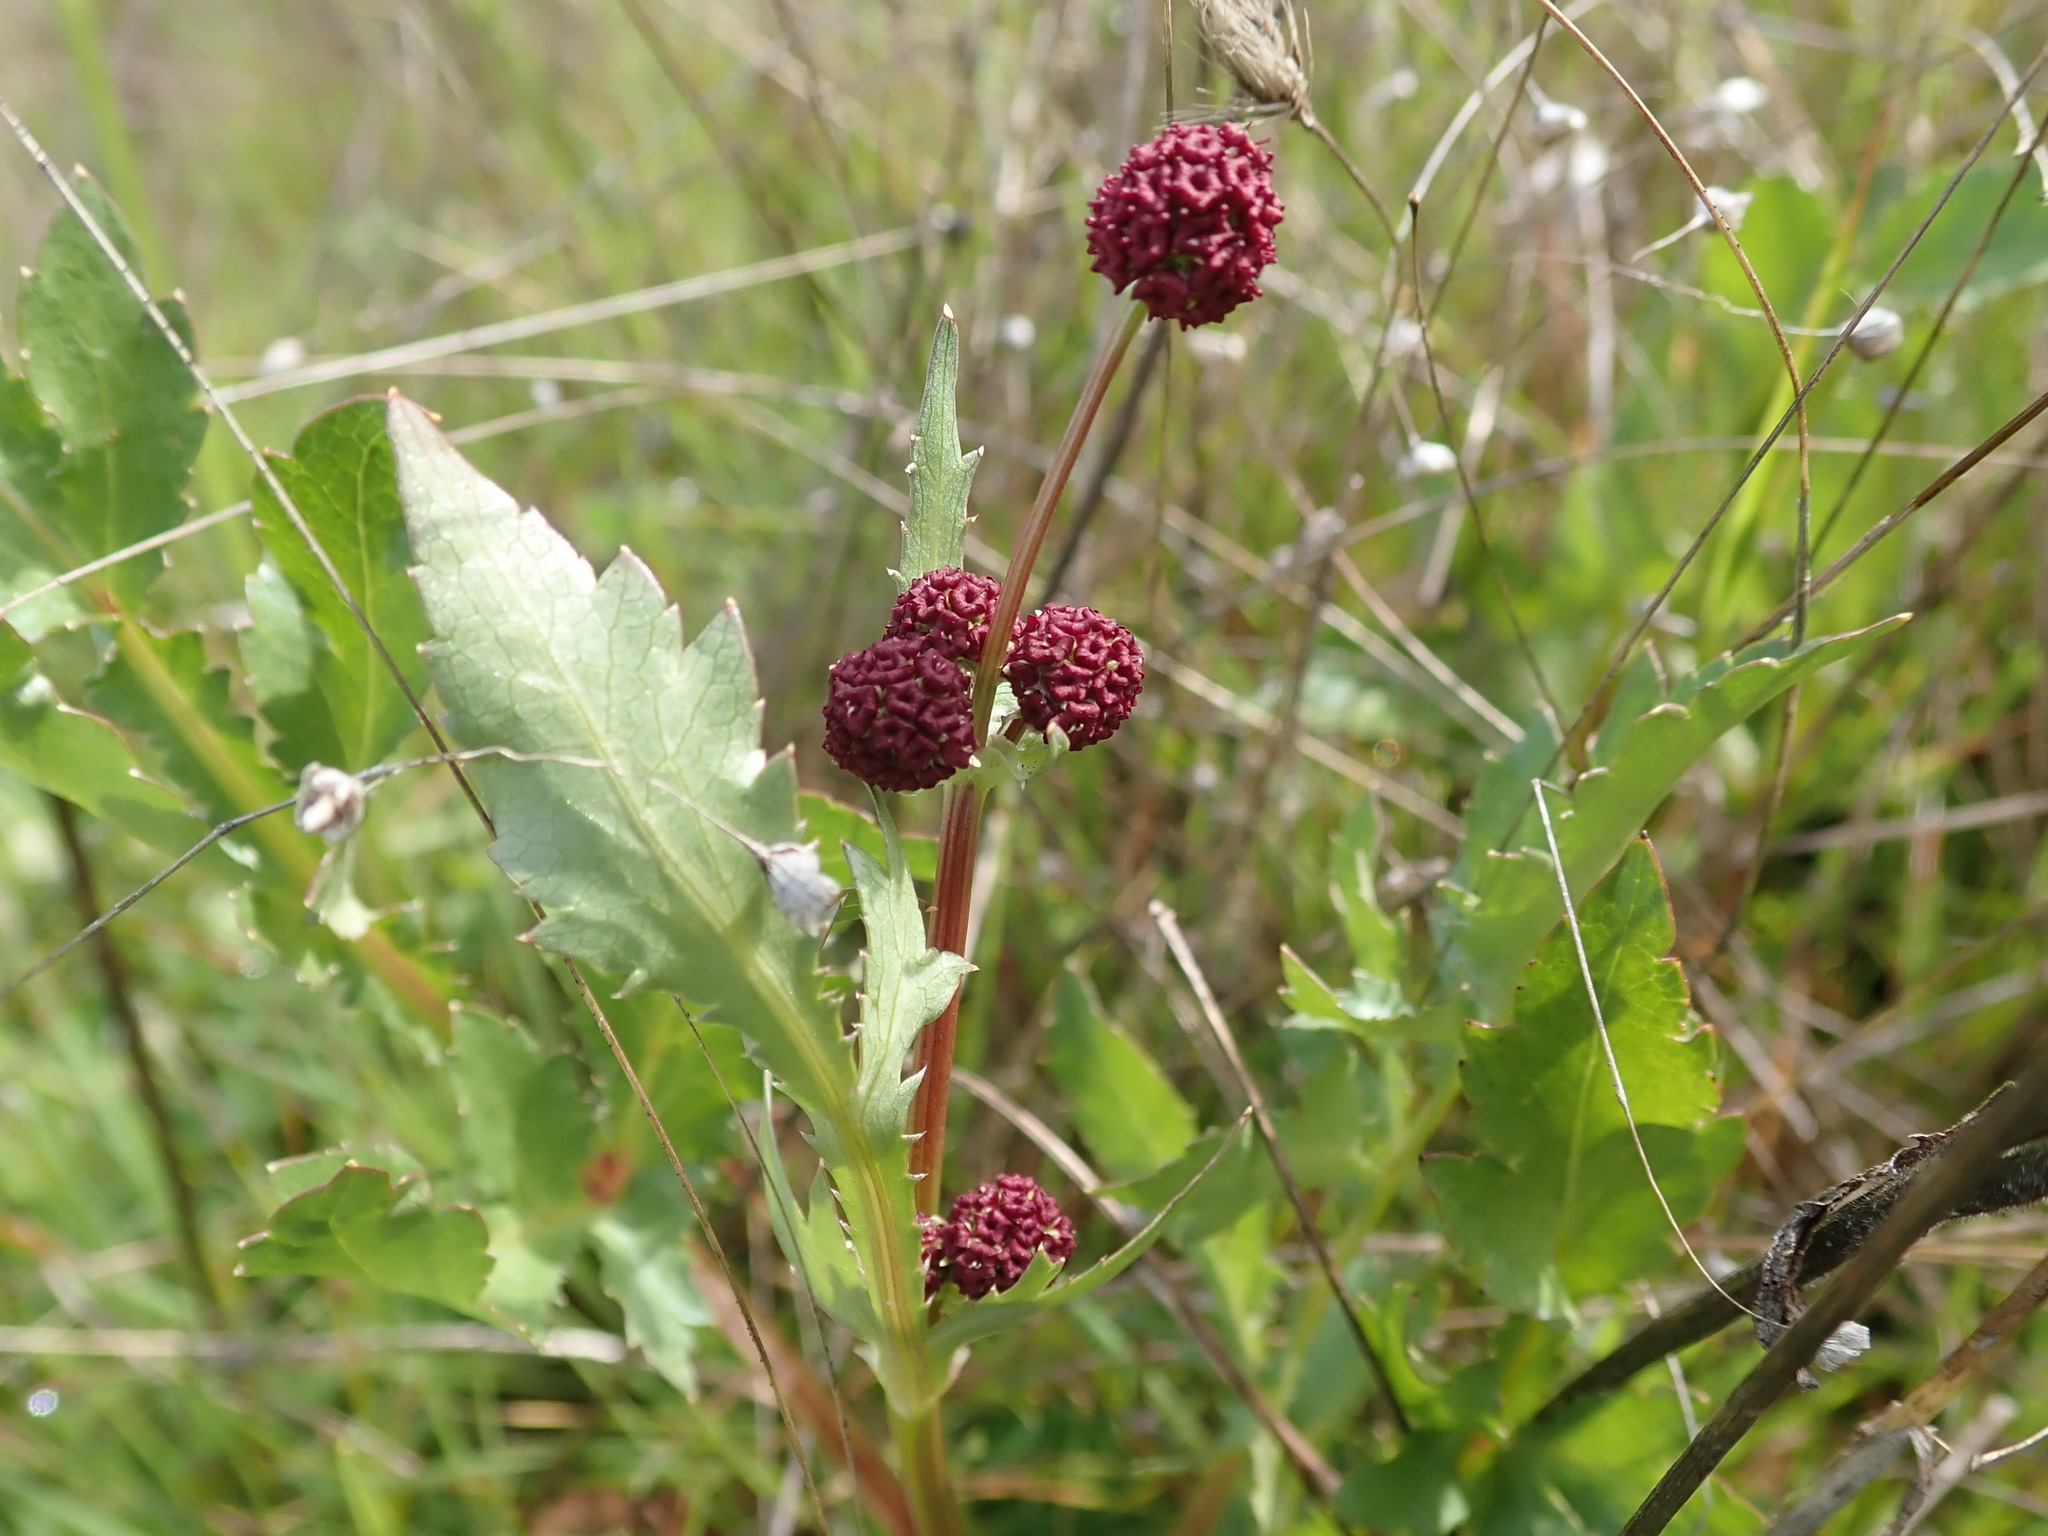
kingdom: Plantae
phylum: Tracheophyta
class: Magnoliopsida
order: Apiales
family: Apiaceae
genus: Sanicula
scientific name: Sanicula bipinnatifida
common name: Shoe-buttons
